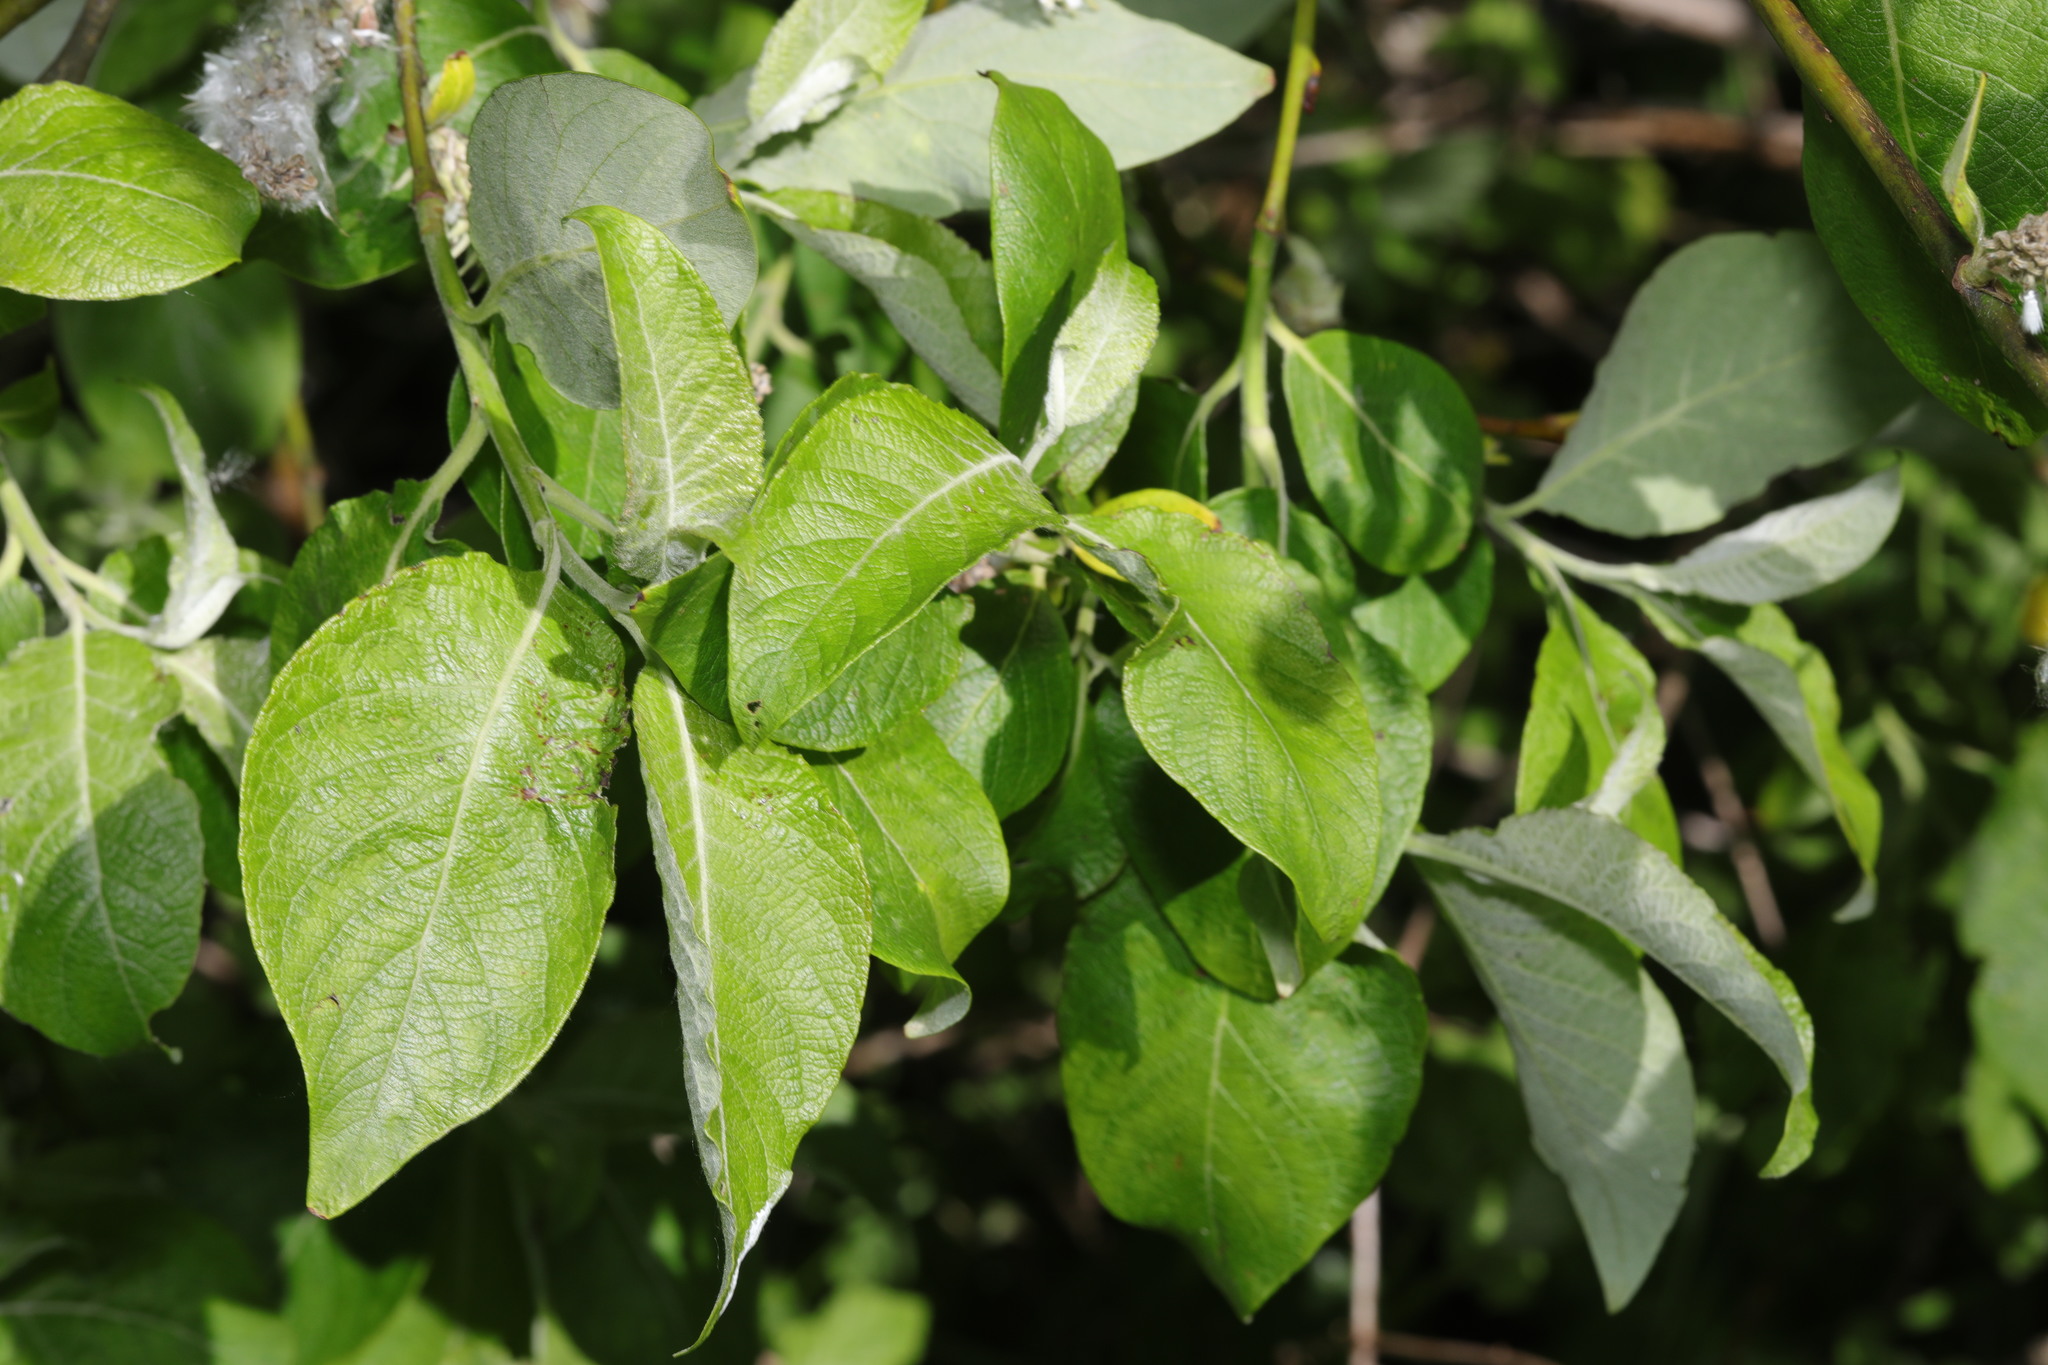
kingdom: Plantae
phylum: Tracheophyta
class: Magnoliopsida
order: Malpighiales
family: Salicaceae
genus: Salix
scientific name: Salix caprea
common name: Goat willow
